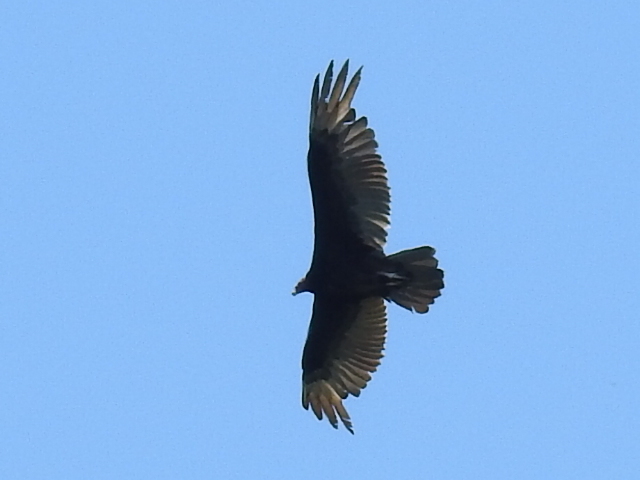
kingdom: Animalia
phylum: Chordata
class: Aves
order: Accipitriformes
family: Cathartidae
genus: Cathartes
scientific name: Cathartes aura
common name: Turkey vulture
